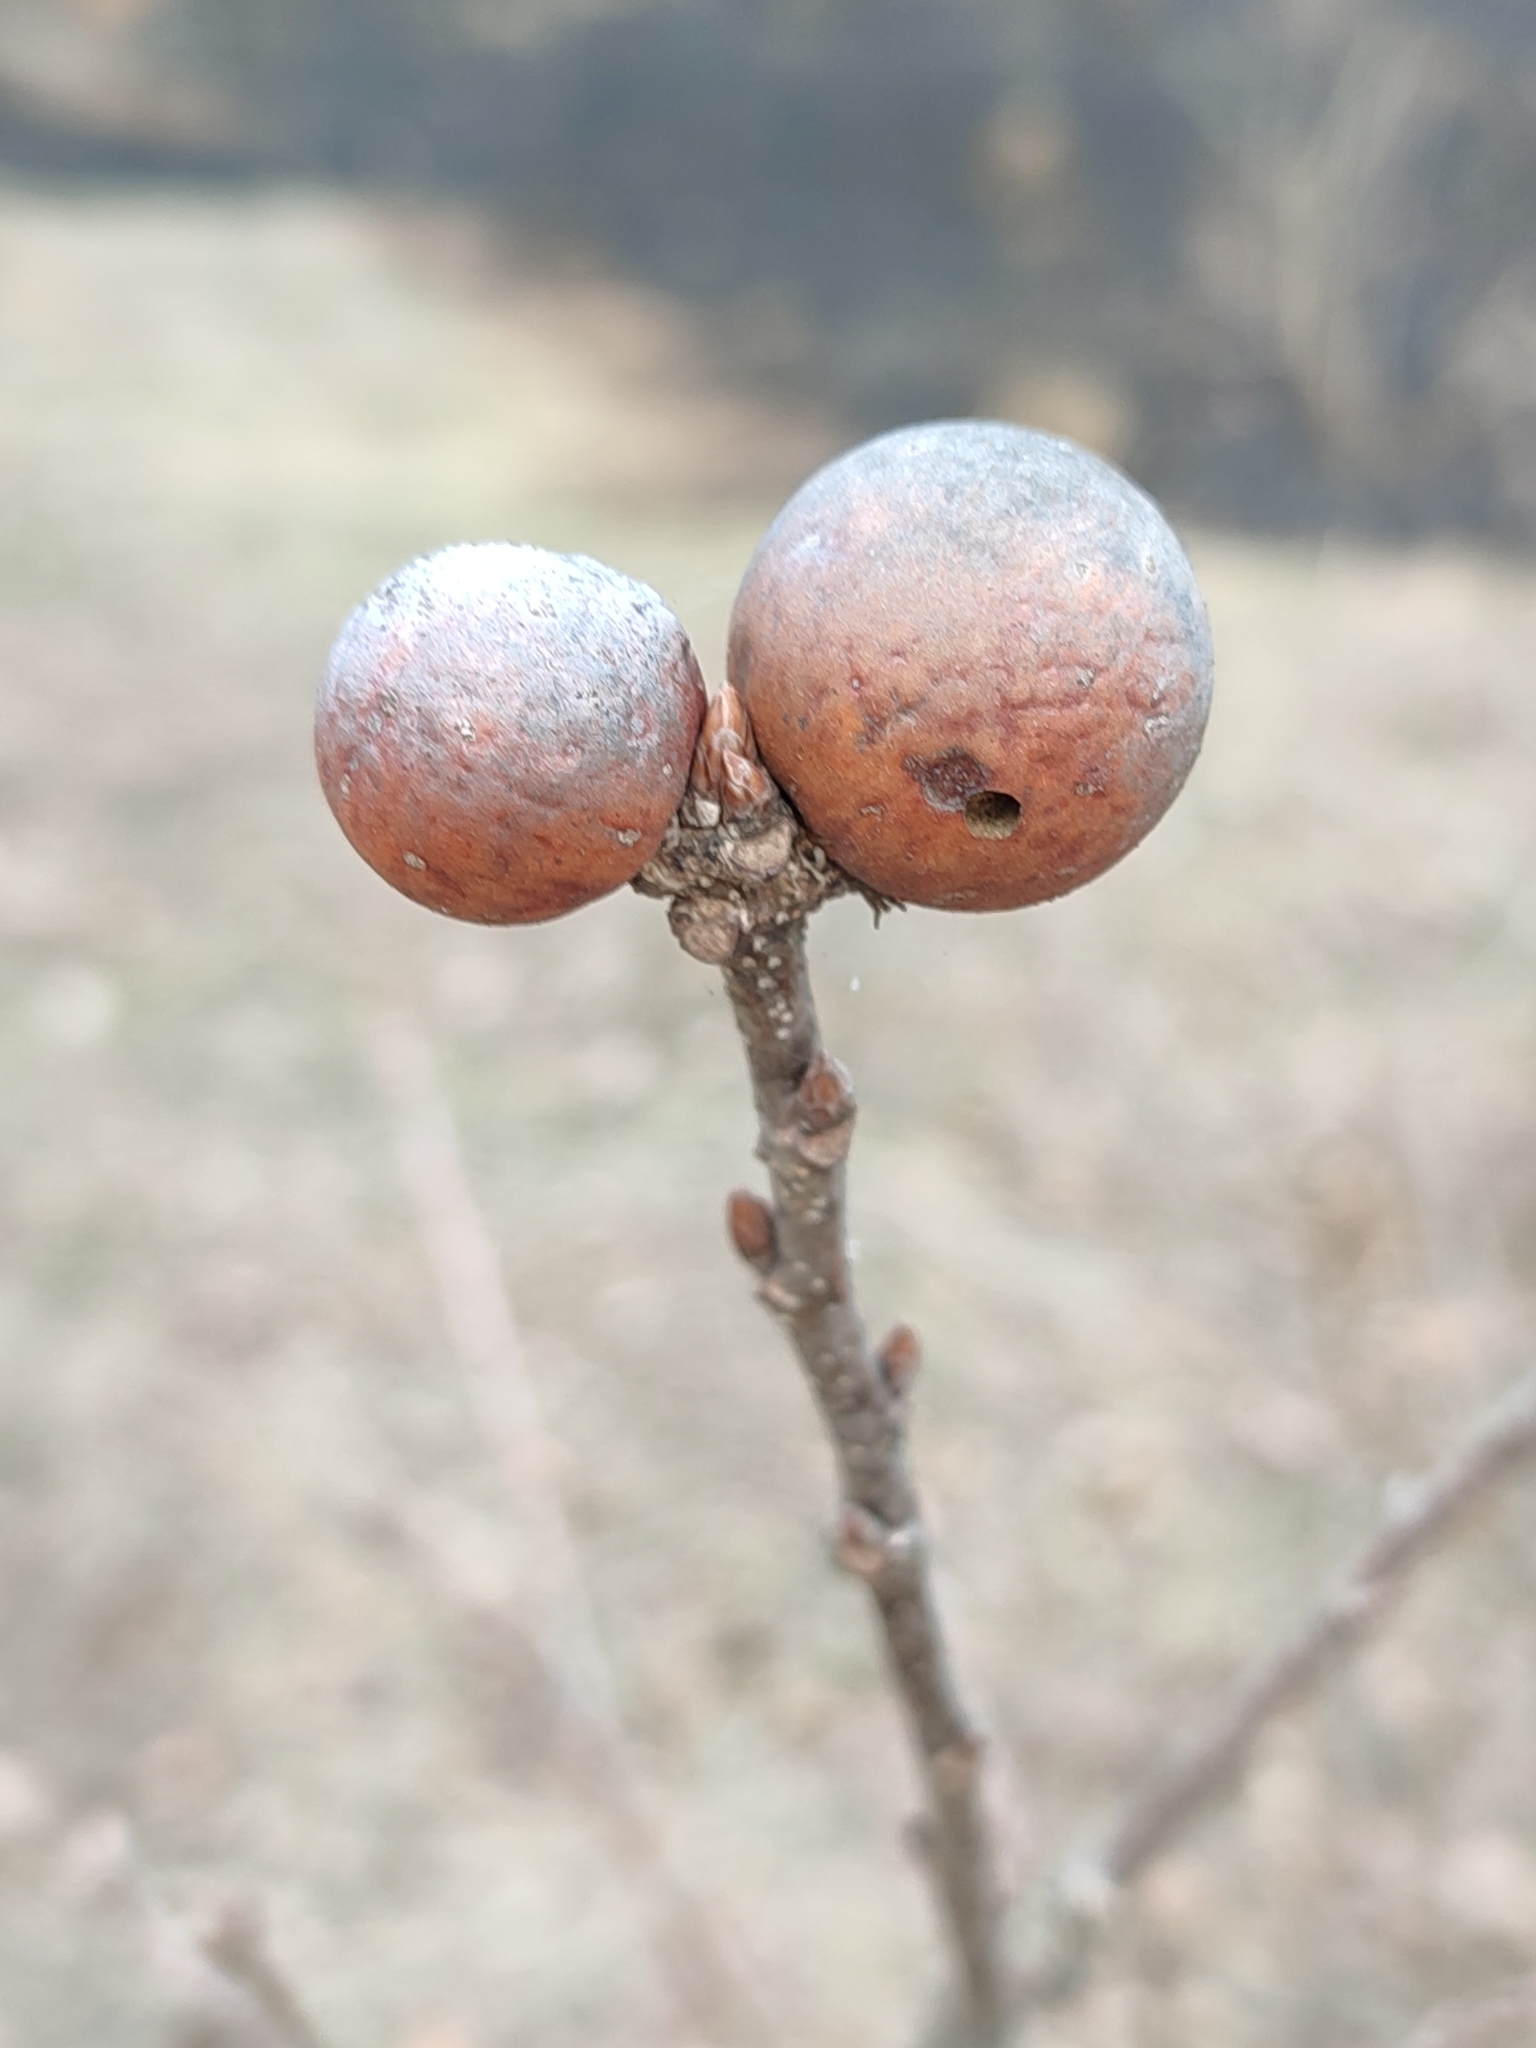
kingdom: Animalia
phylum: Arthropoda
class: Insecta
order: Hymenoptera
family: Cynipidae
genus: Andricus
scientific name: Andricus kollari
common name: Marble gall
